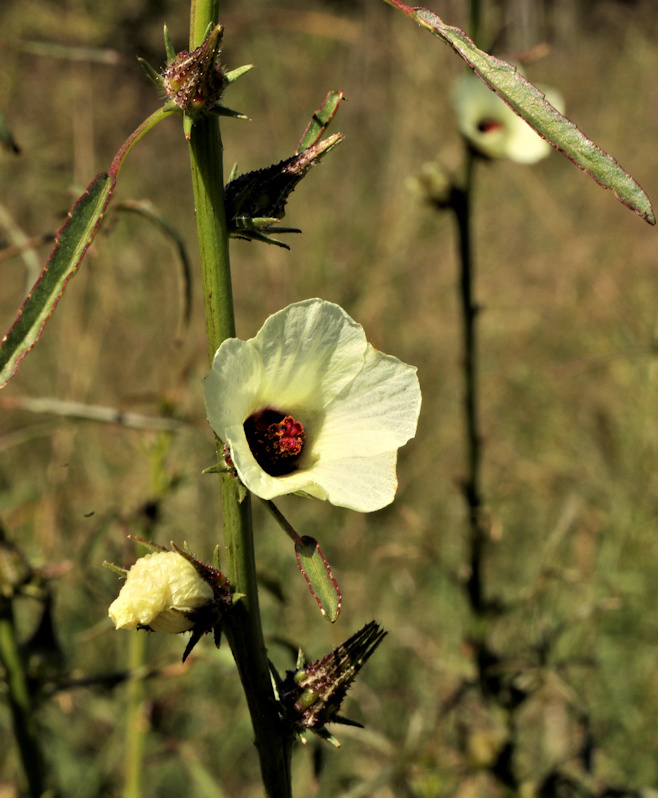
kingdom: Plantae
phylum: Tracheophyta
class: Magnoliopsida
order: Malvales
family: Malvaceae
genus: Hibiscus
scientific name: Hibiscus cannabinus
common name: Brown indianhemp
